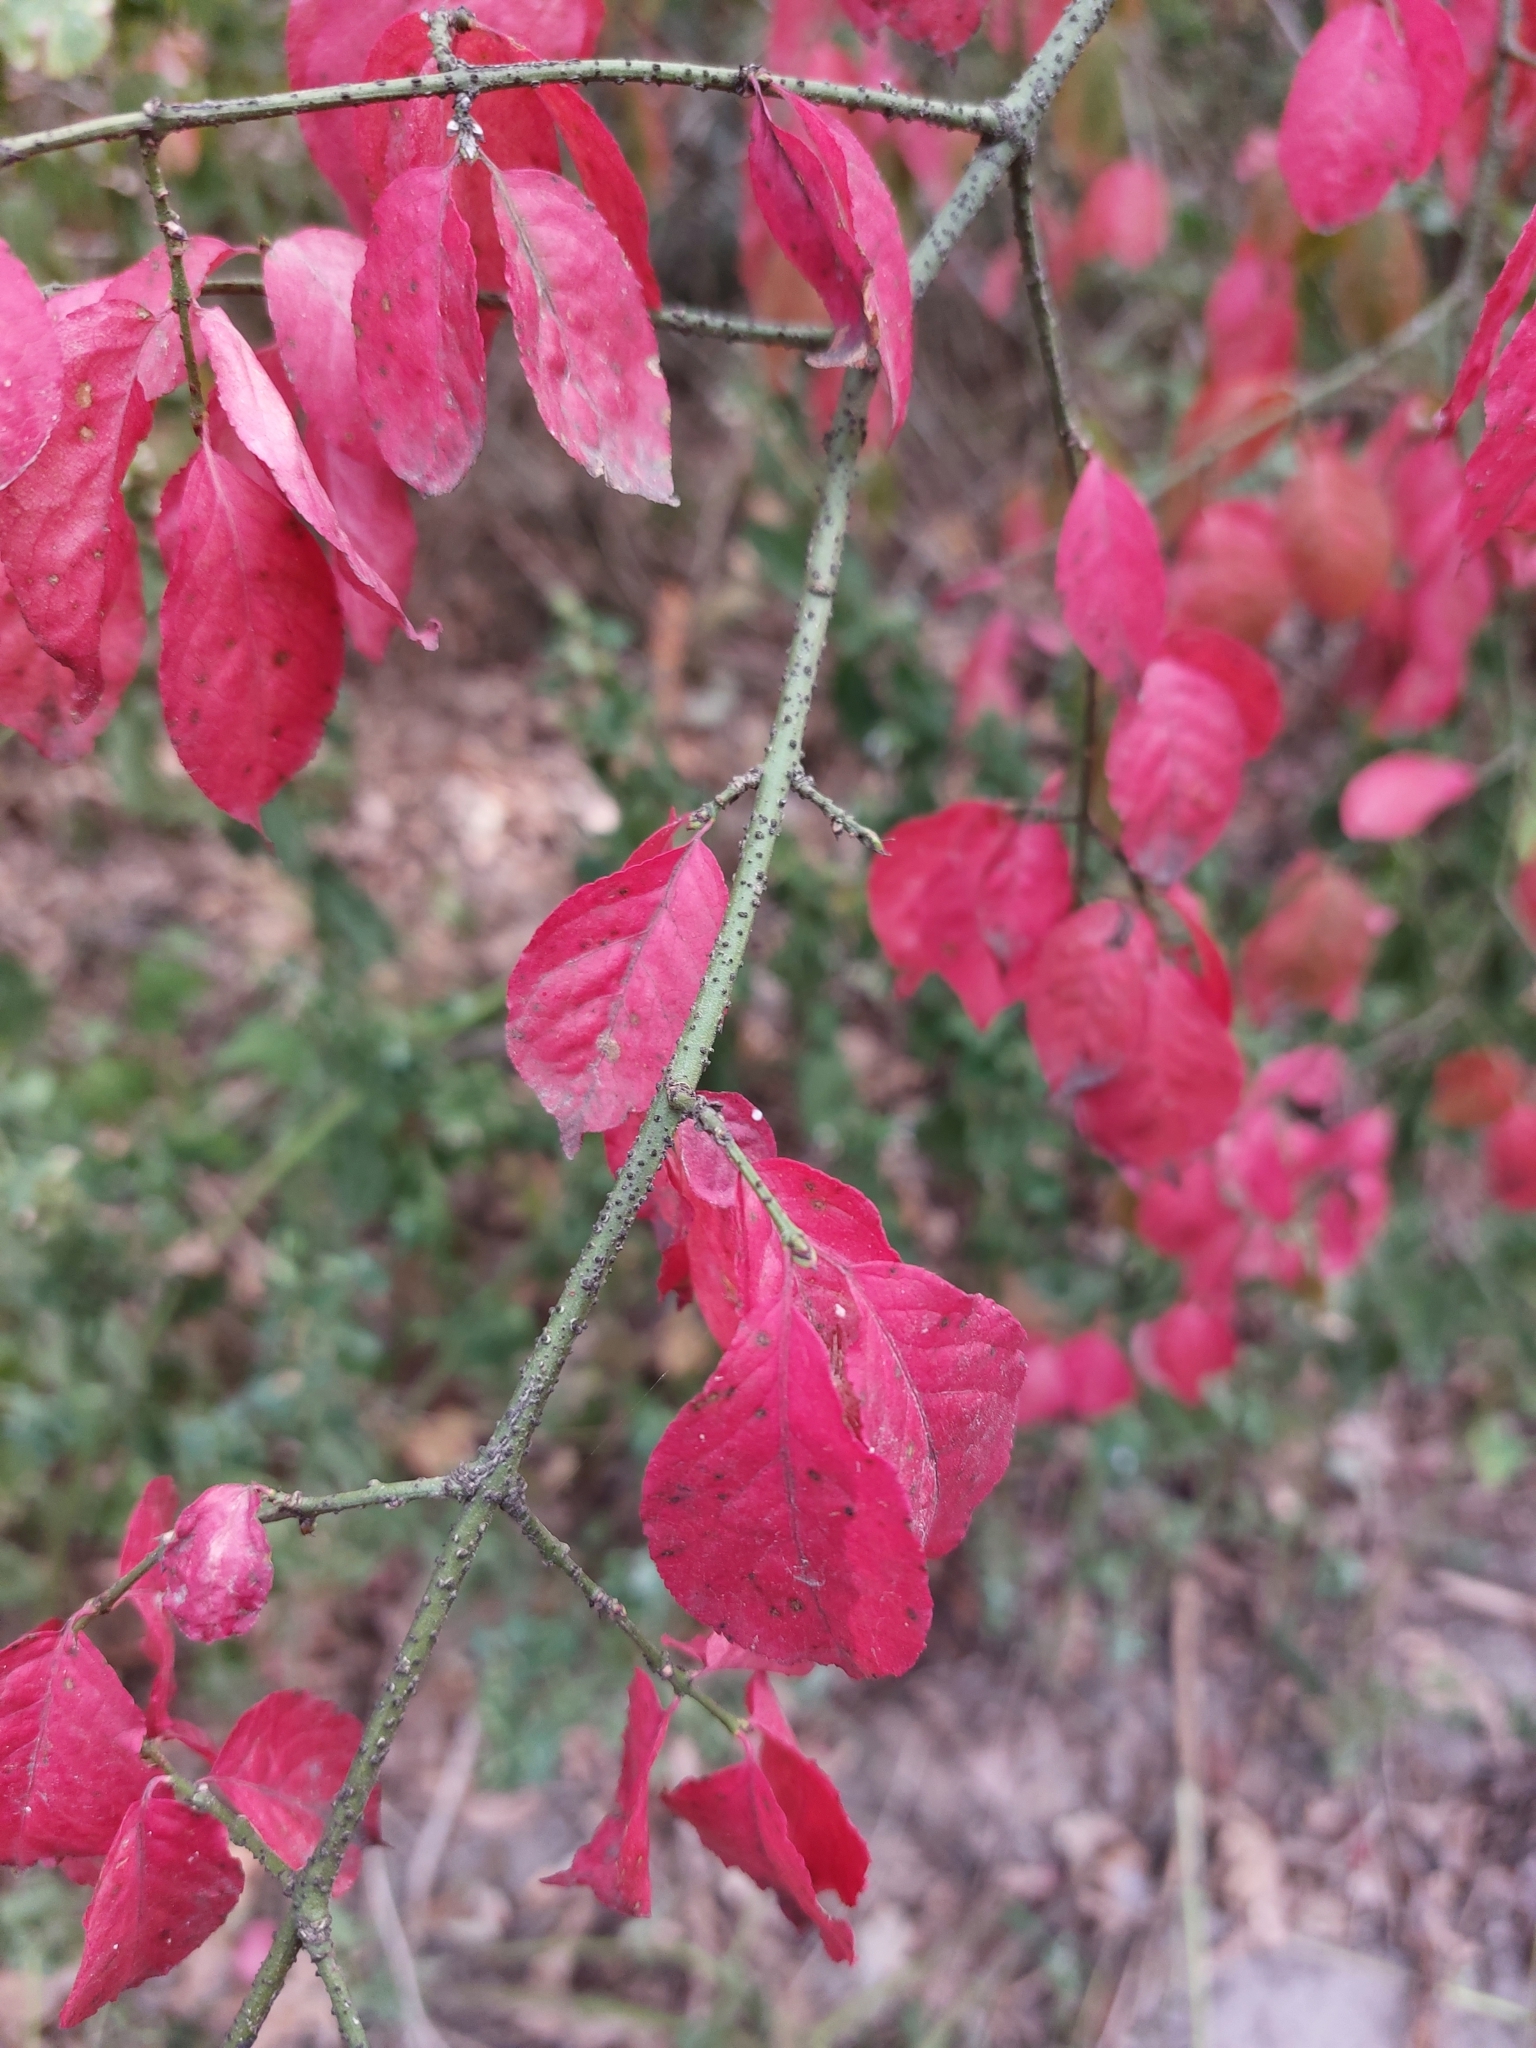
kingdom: Plantae
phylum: Tracheophyta
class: Magnoliopsida
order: Celastrales
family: Celastraceae
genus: Euonymus
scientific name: Euonymus verrucosus
